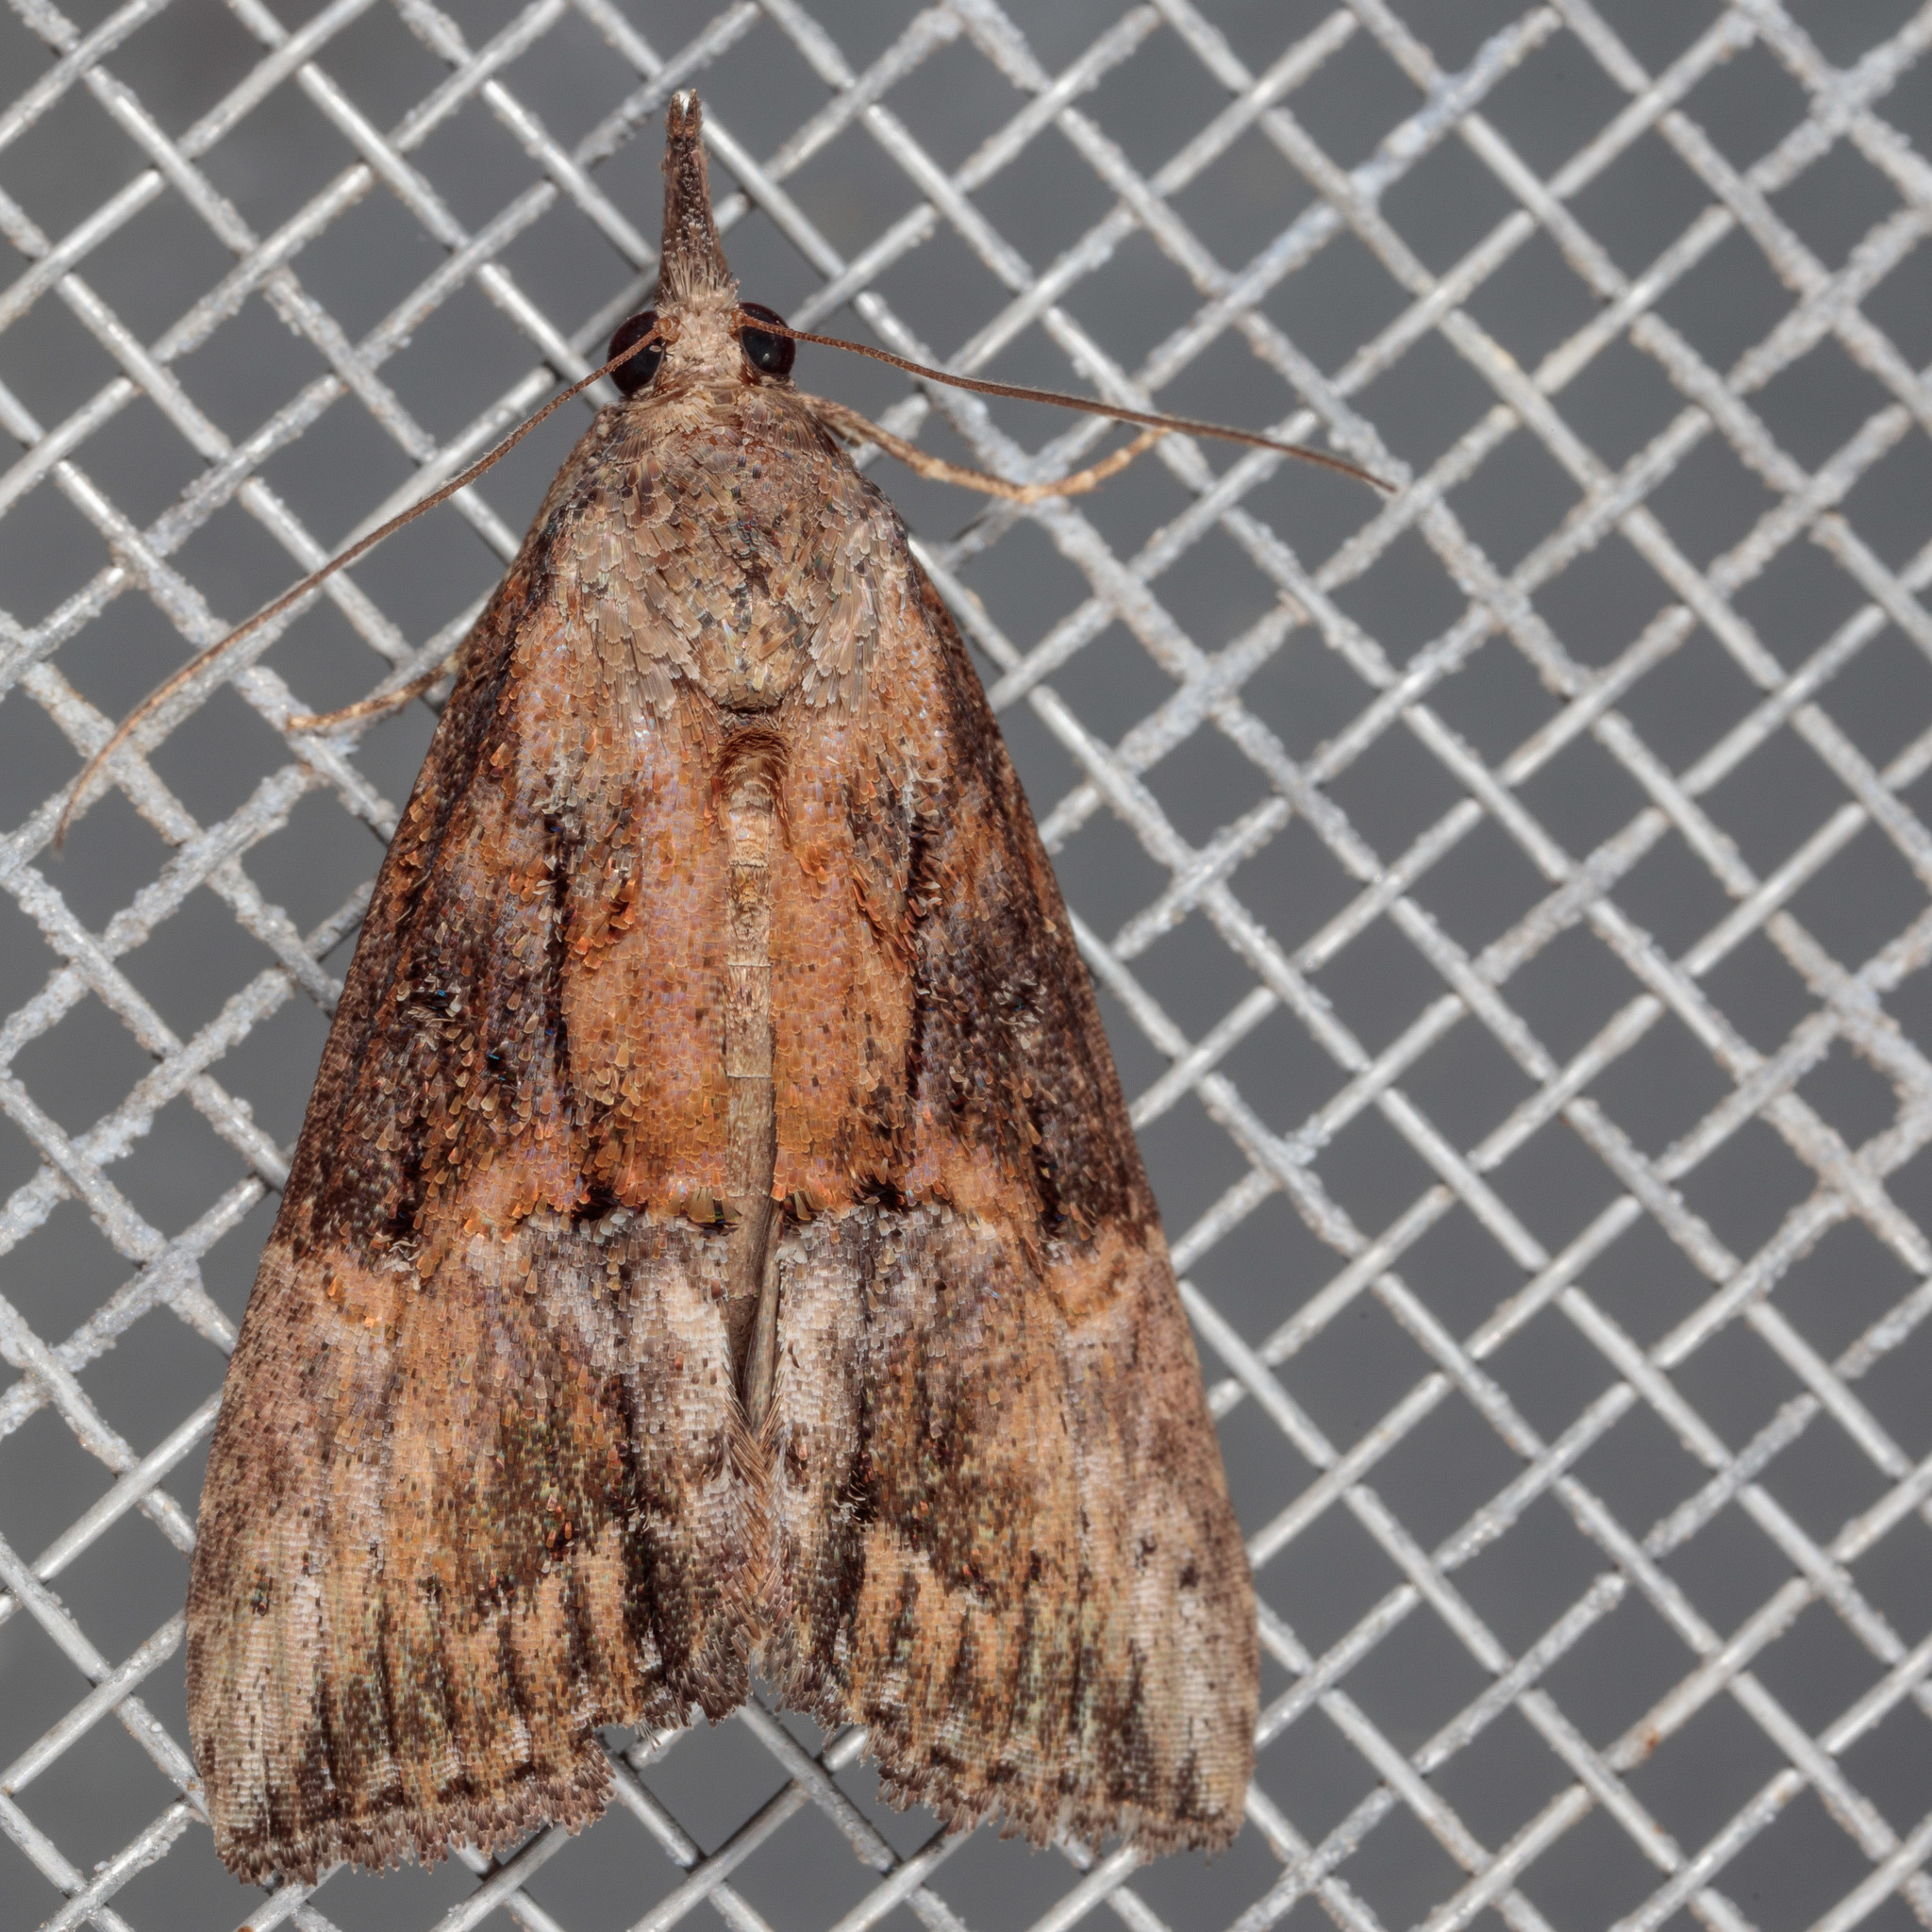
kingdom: Animalia
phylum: Arthropoda
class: Insecta
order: Lepidoptera
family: Erebidae
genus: Hypena
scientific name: Hypena scabra
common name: Green cloverworm
